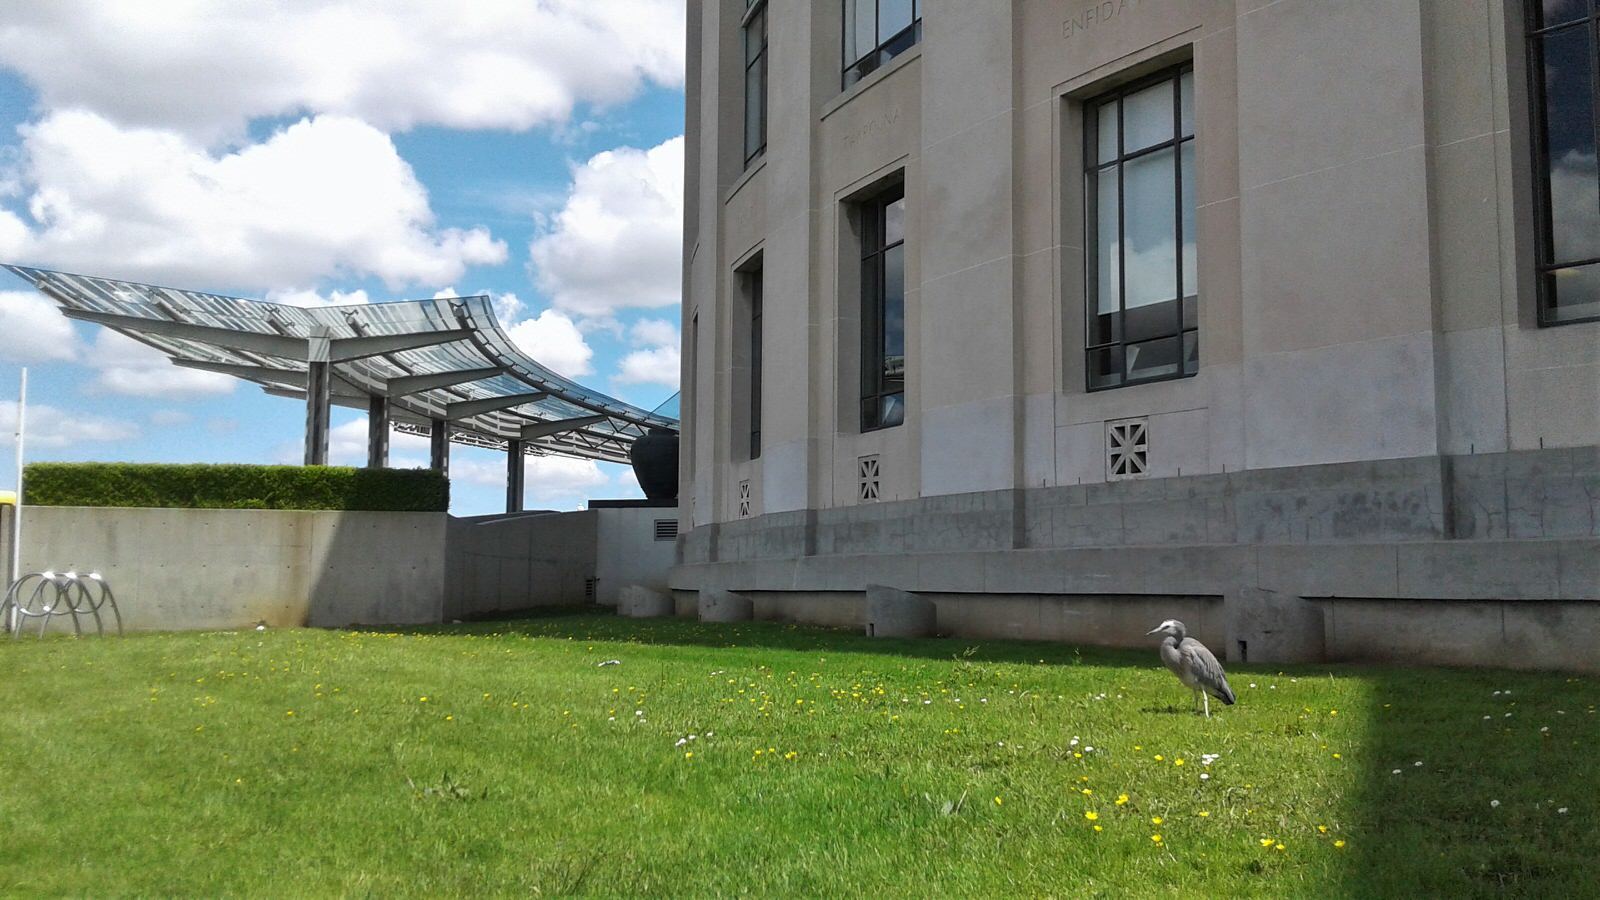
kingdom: Animalia
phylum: Chordata
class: Aves
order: Pelecaniformes
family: Ardeidae
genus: Egretta
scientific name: Egretta novaehollandiae
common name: White-faced heron
